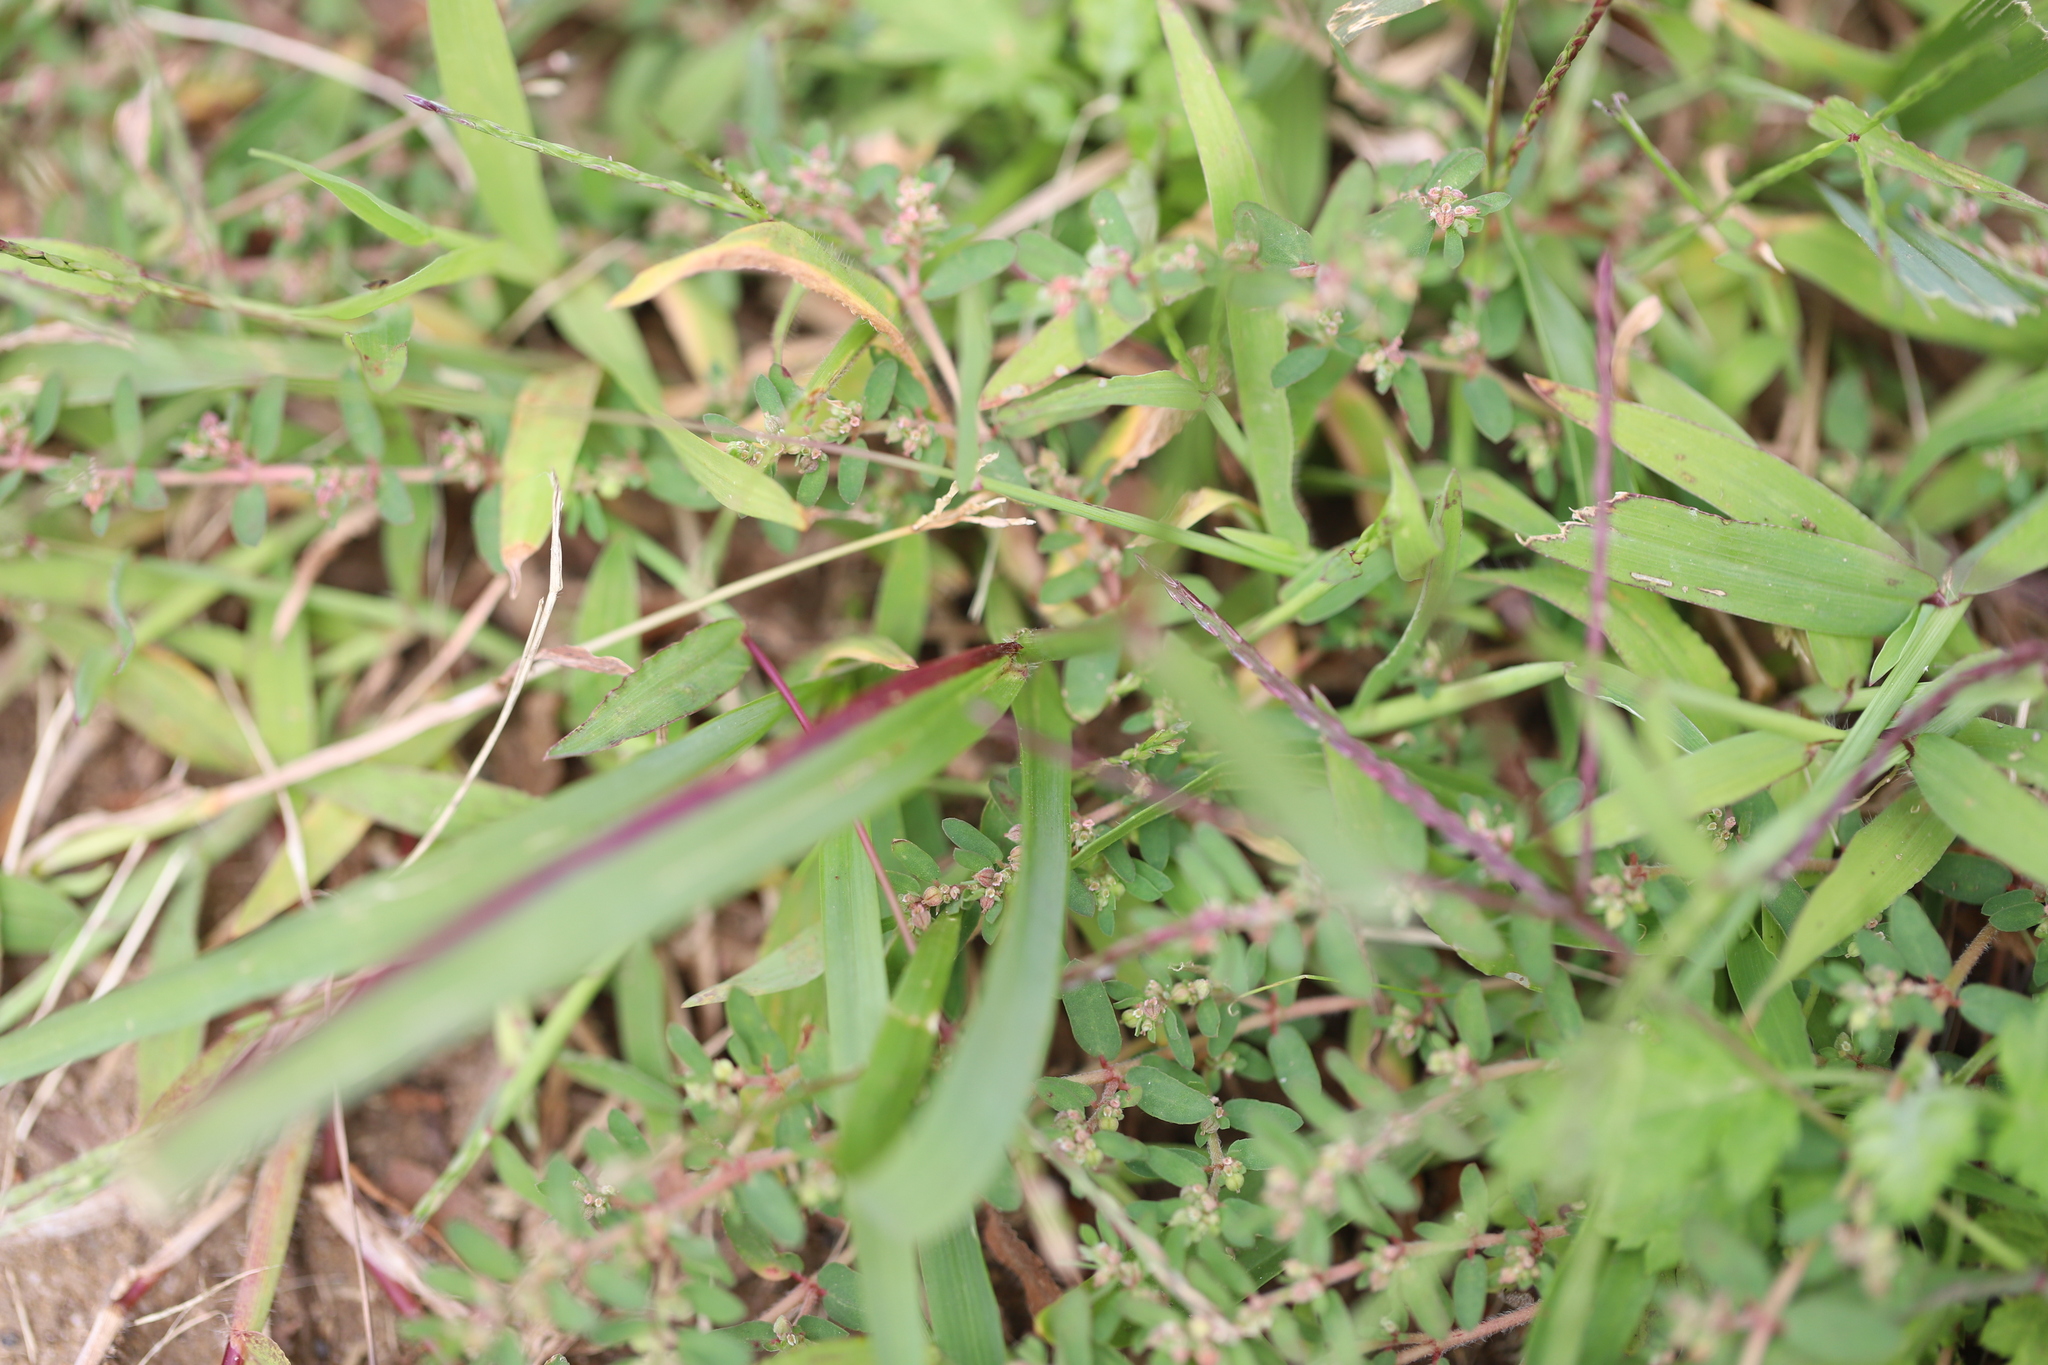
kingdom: Plantae
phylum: Tracheophyta
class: Magnoliopsida
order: Malpighiales
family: Euphorbiaceae
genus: Euphorbia
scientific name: Euphorbia maculata
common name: Spotted spurge
